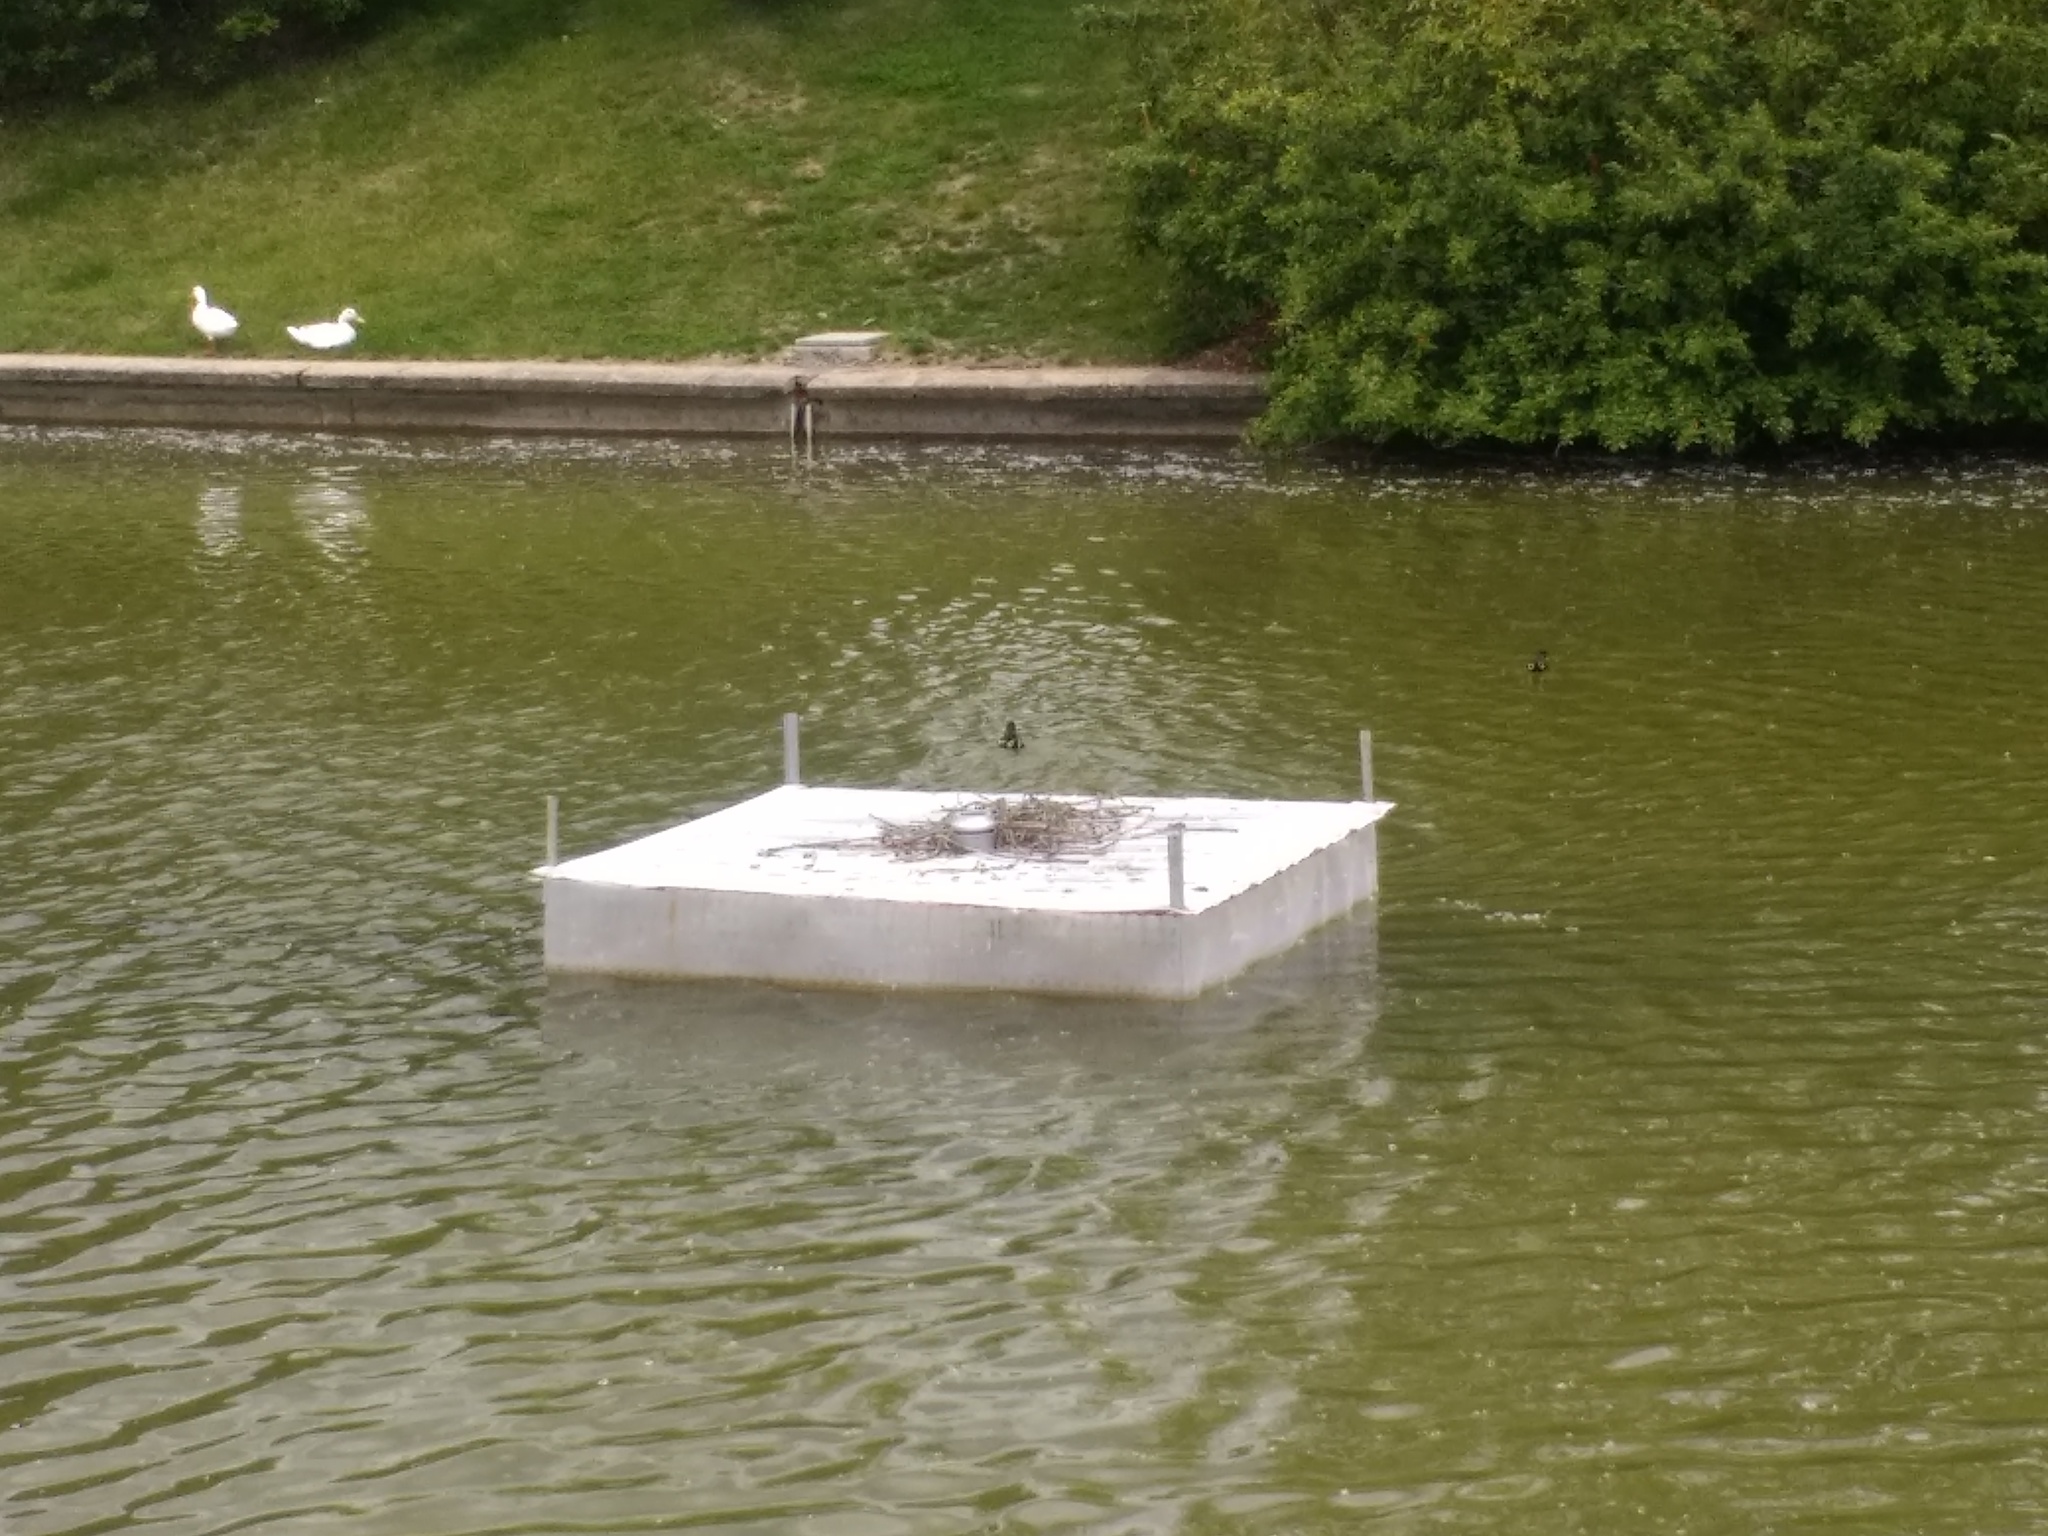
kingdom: Animalia
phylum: Chordata
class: Aves
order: Gruiformes
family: Rallidae
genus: Gallinula
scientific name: Gallinula chloropus
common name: Common moorhen
